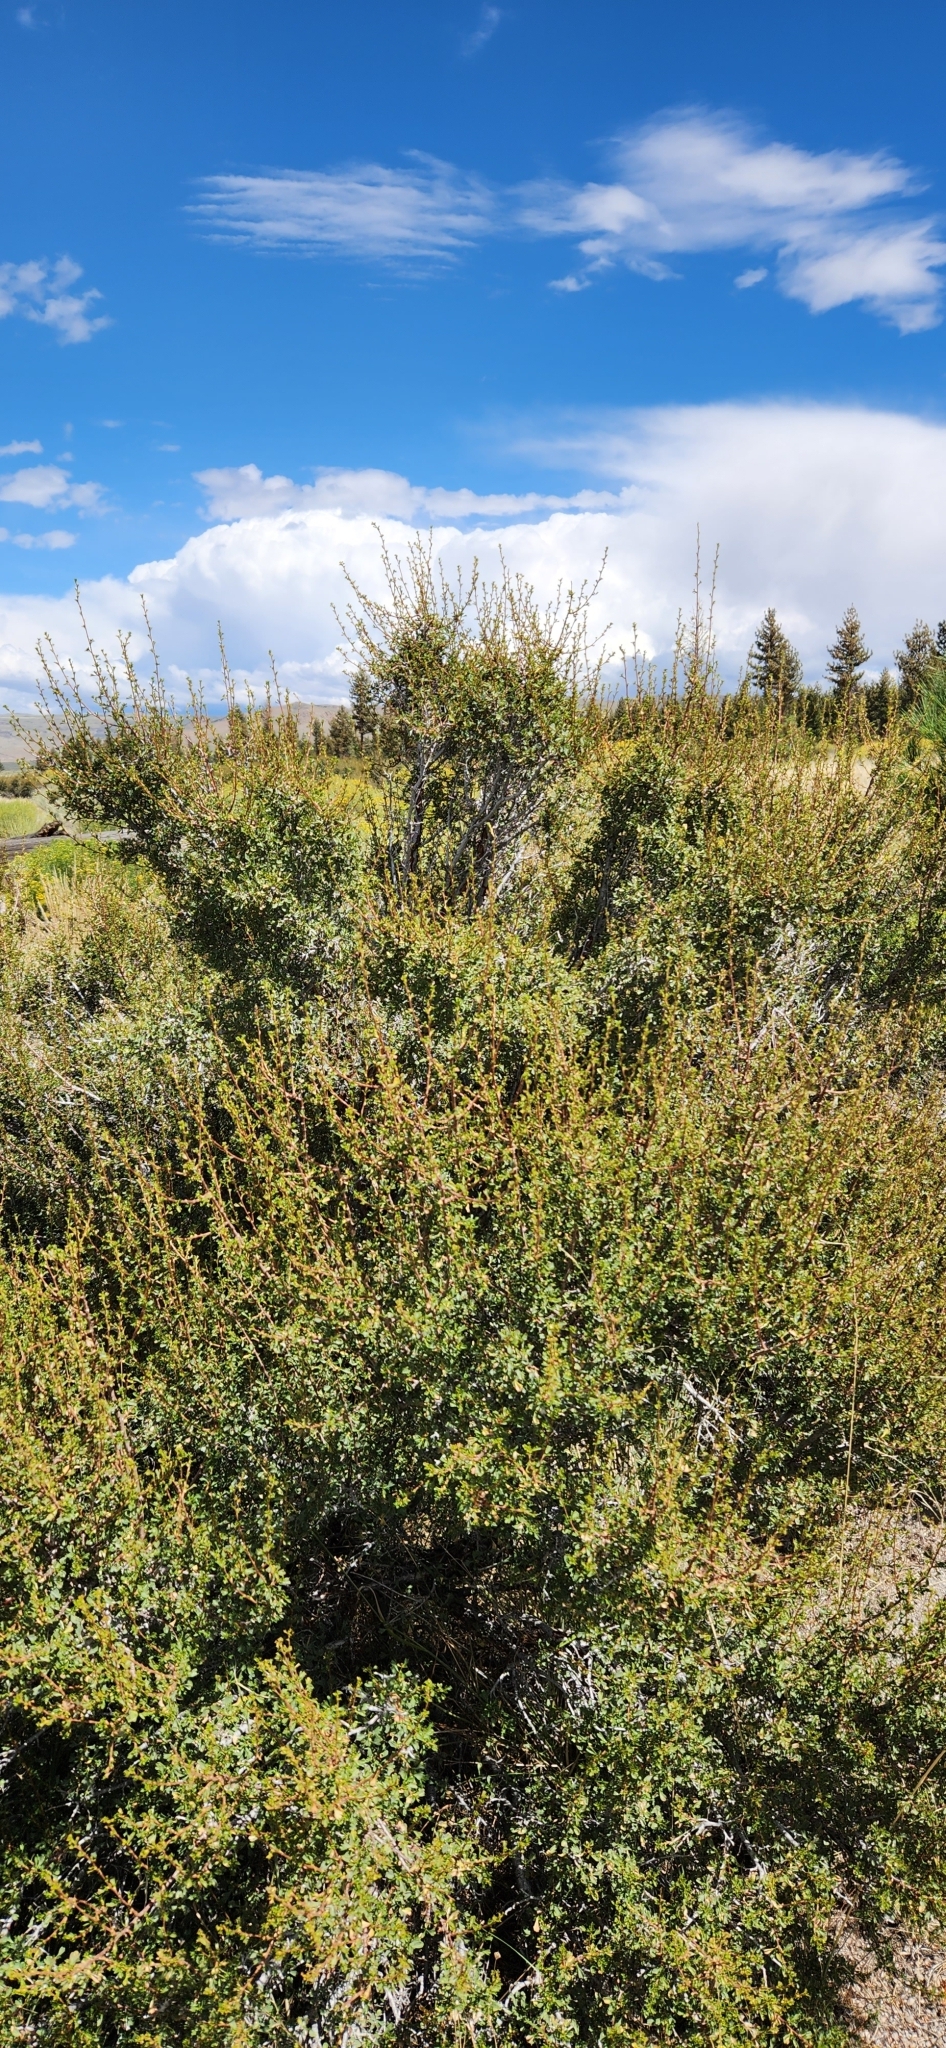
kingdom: Plantae
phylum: Tracheophyta
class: Magnoliopsida
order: Rosales
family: Rosaceae
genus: Purshia
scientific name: Purshia tridentata
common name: Antelope bitterbrush
